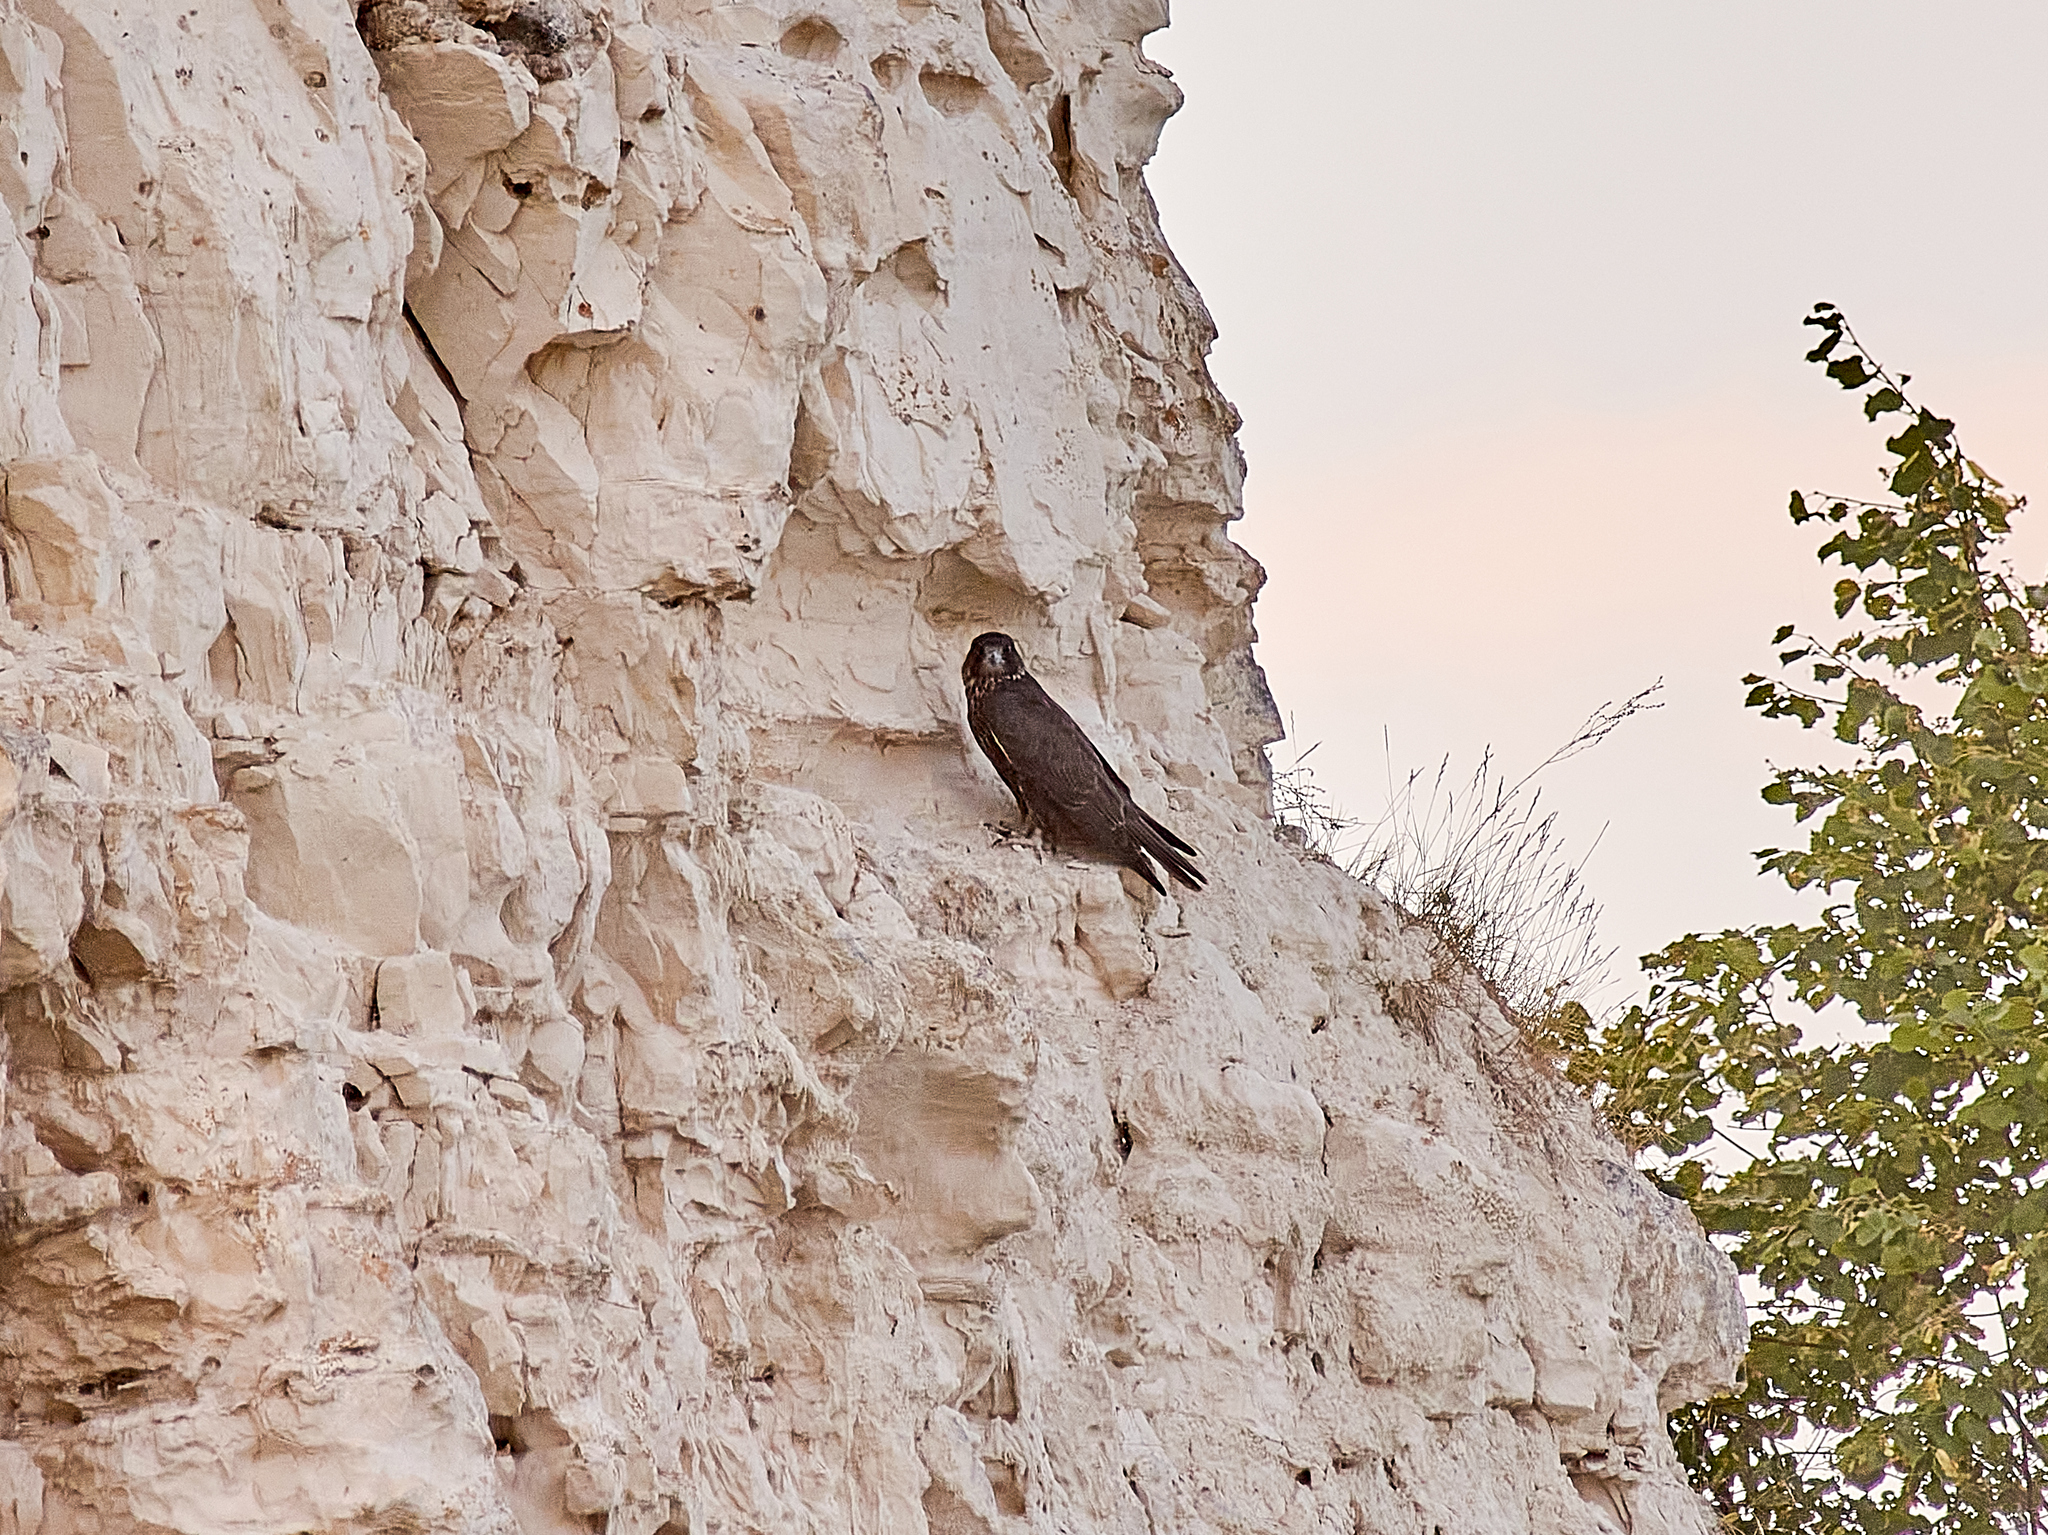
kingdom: Animalia
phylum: Chordata
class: Aves
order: Falconiformes
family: Falconidae
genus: Falco
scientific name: Falco cherrug
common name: Saker falcon
